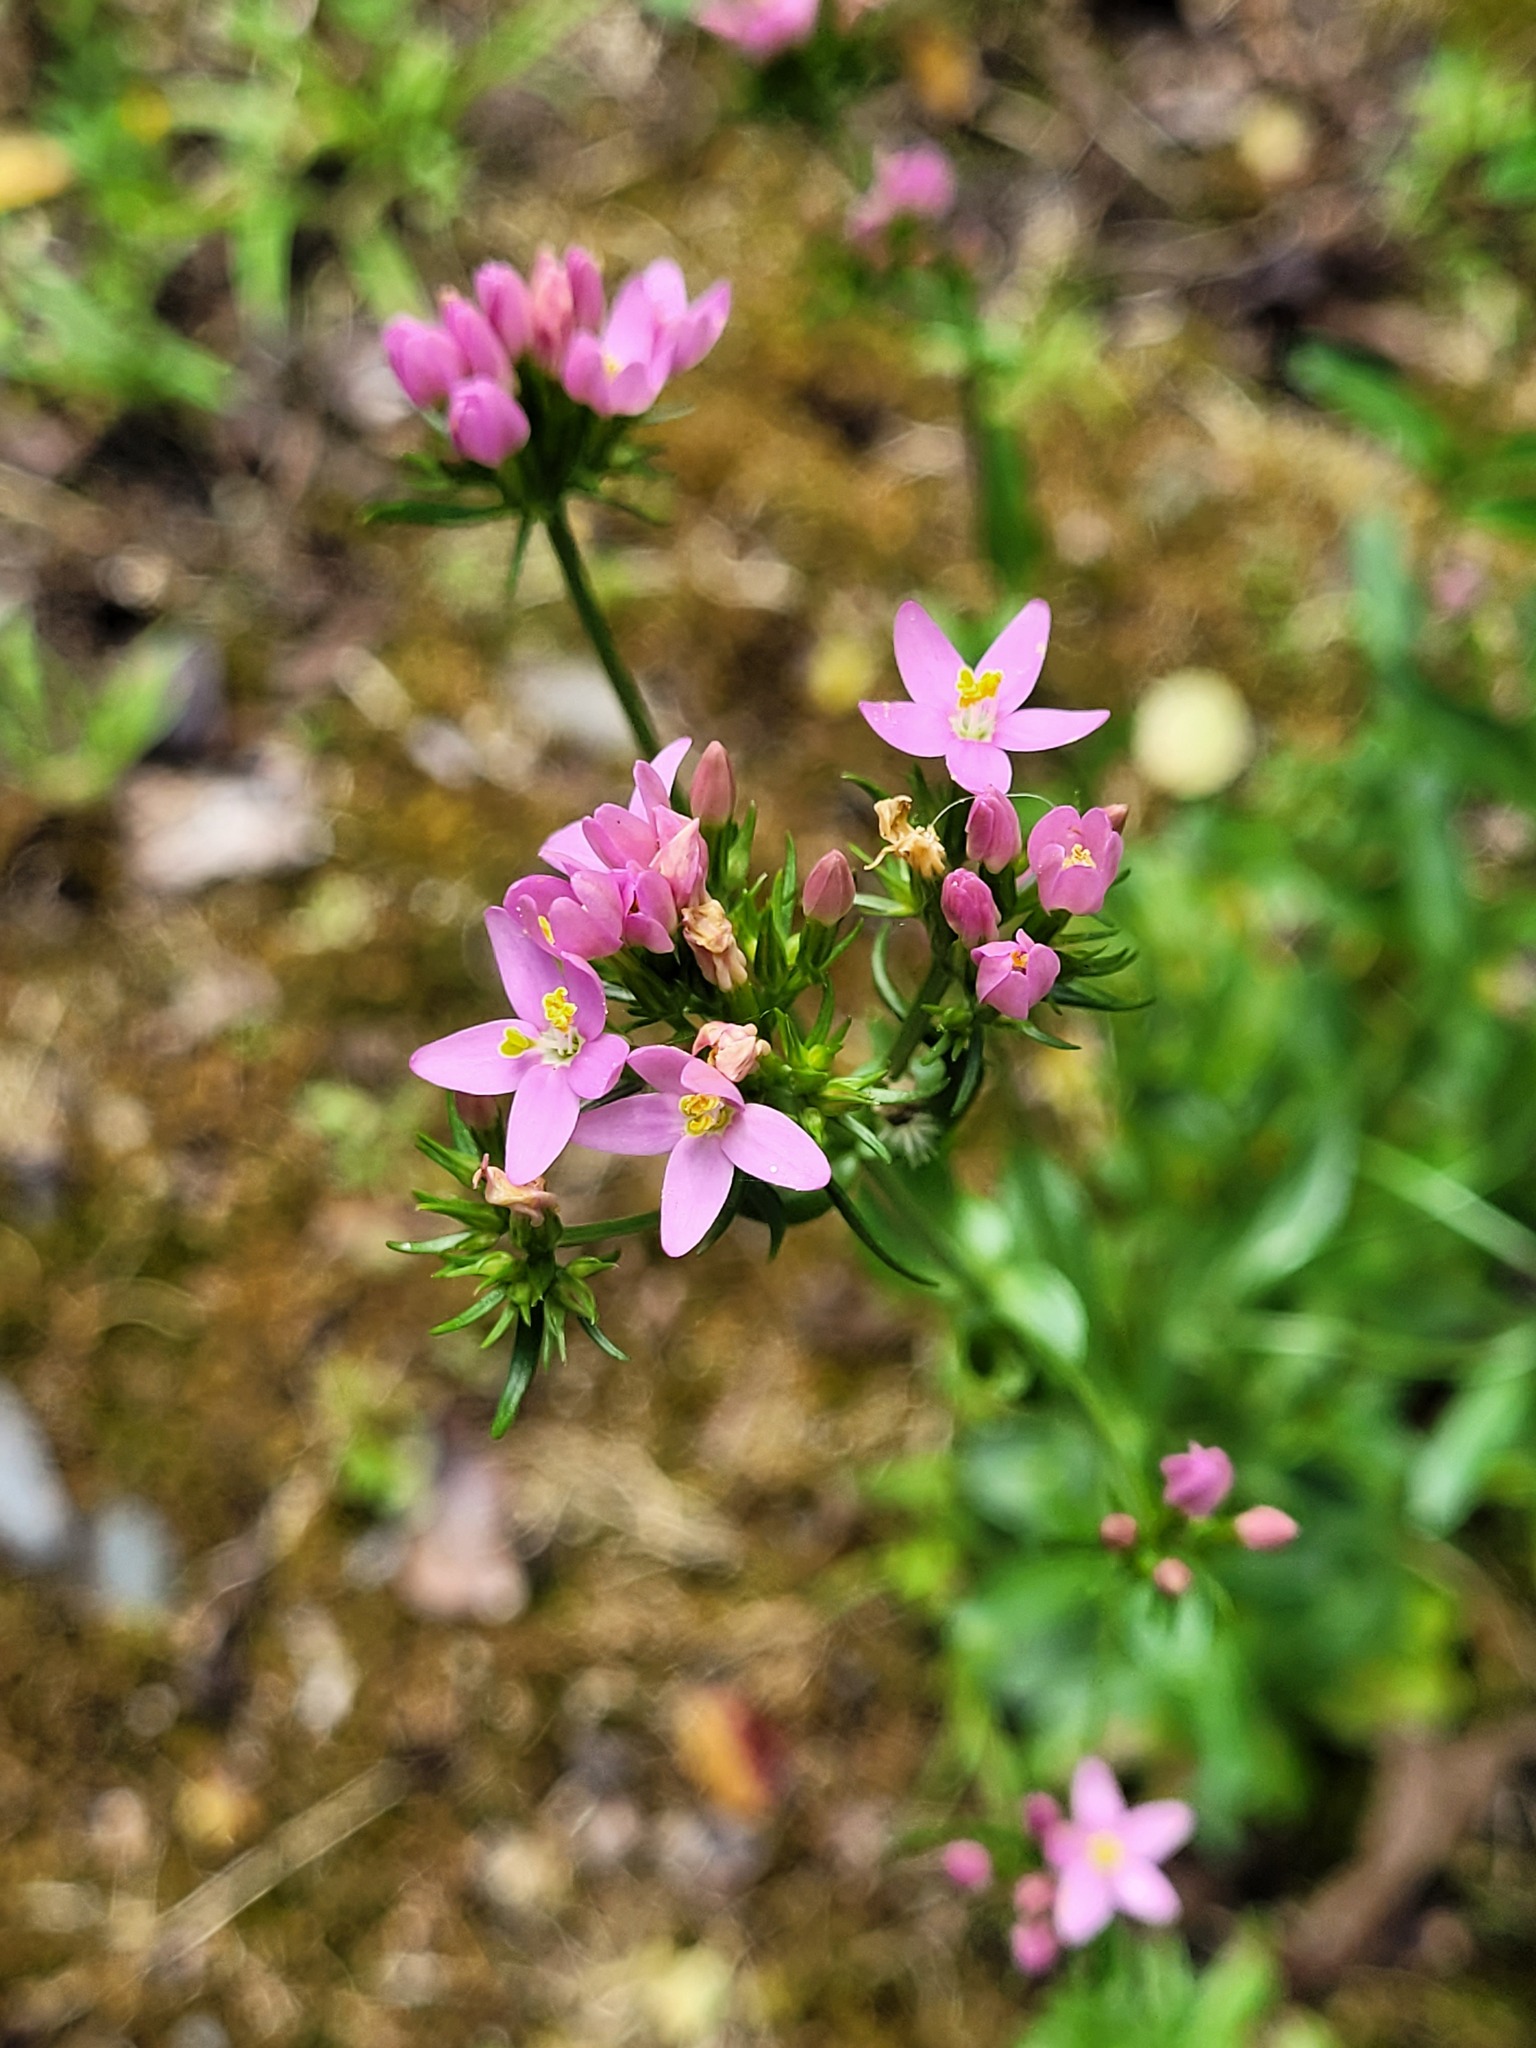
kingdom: Plantae
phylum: Tracheophyta
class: Magnoliopsida
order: Gentianales
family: Gentianaceae
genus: Centaurium
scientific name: Centaurium erythraea
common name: Common centaury
